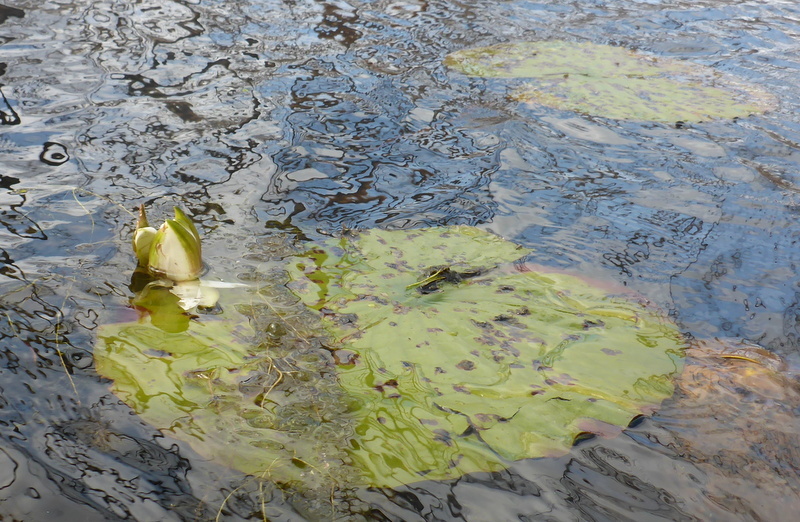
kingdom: Plantae
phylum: Tracheophyta
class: Magnoliopsida
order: Nymphaeales
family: Nymphaeaceae
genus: Nymphaea
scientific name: Nymphaea odorata
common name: Fragrant water-lily
